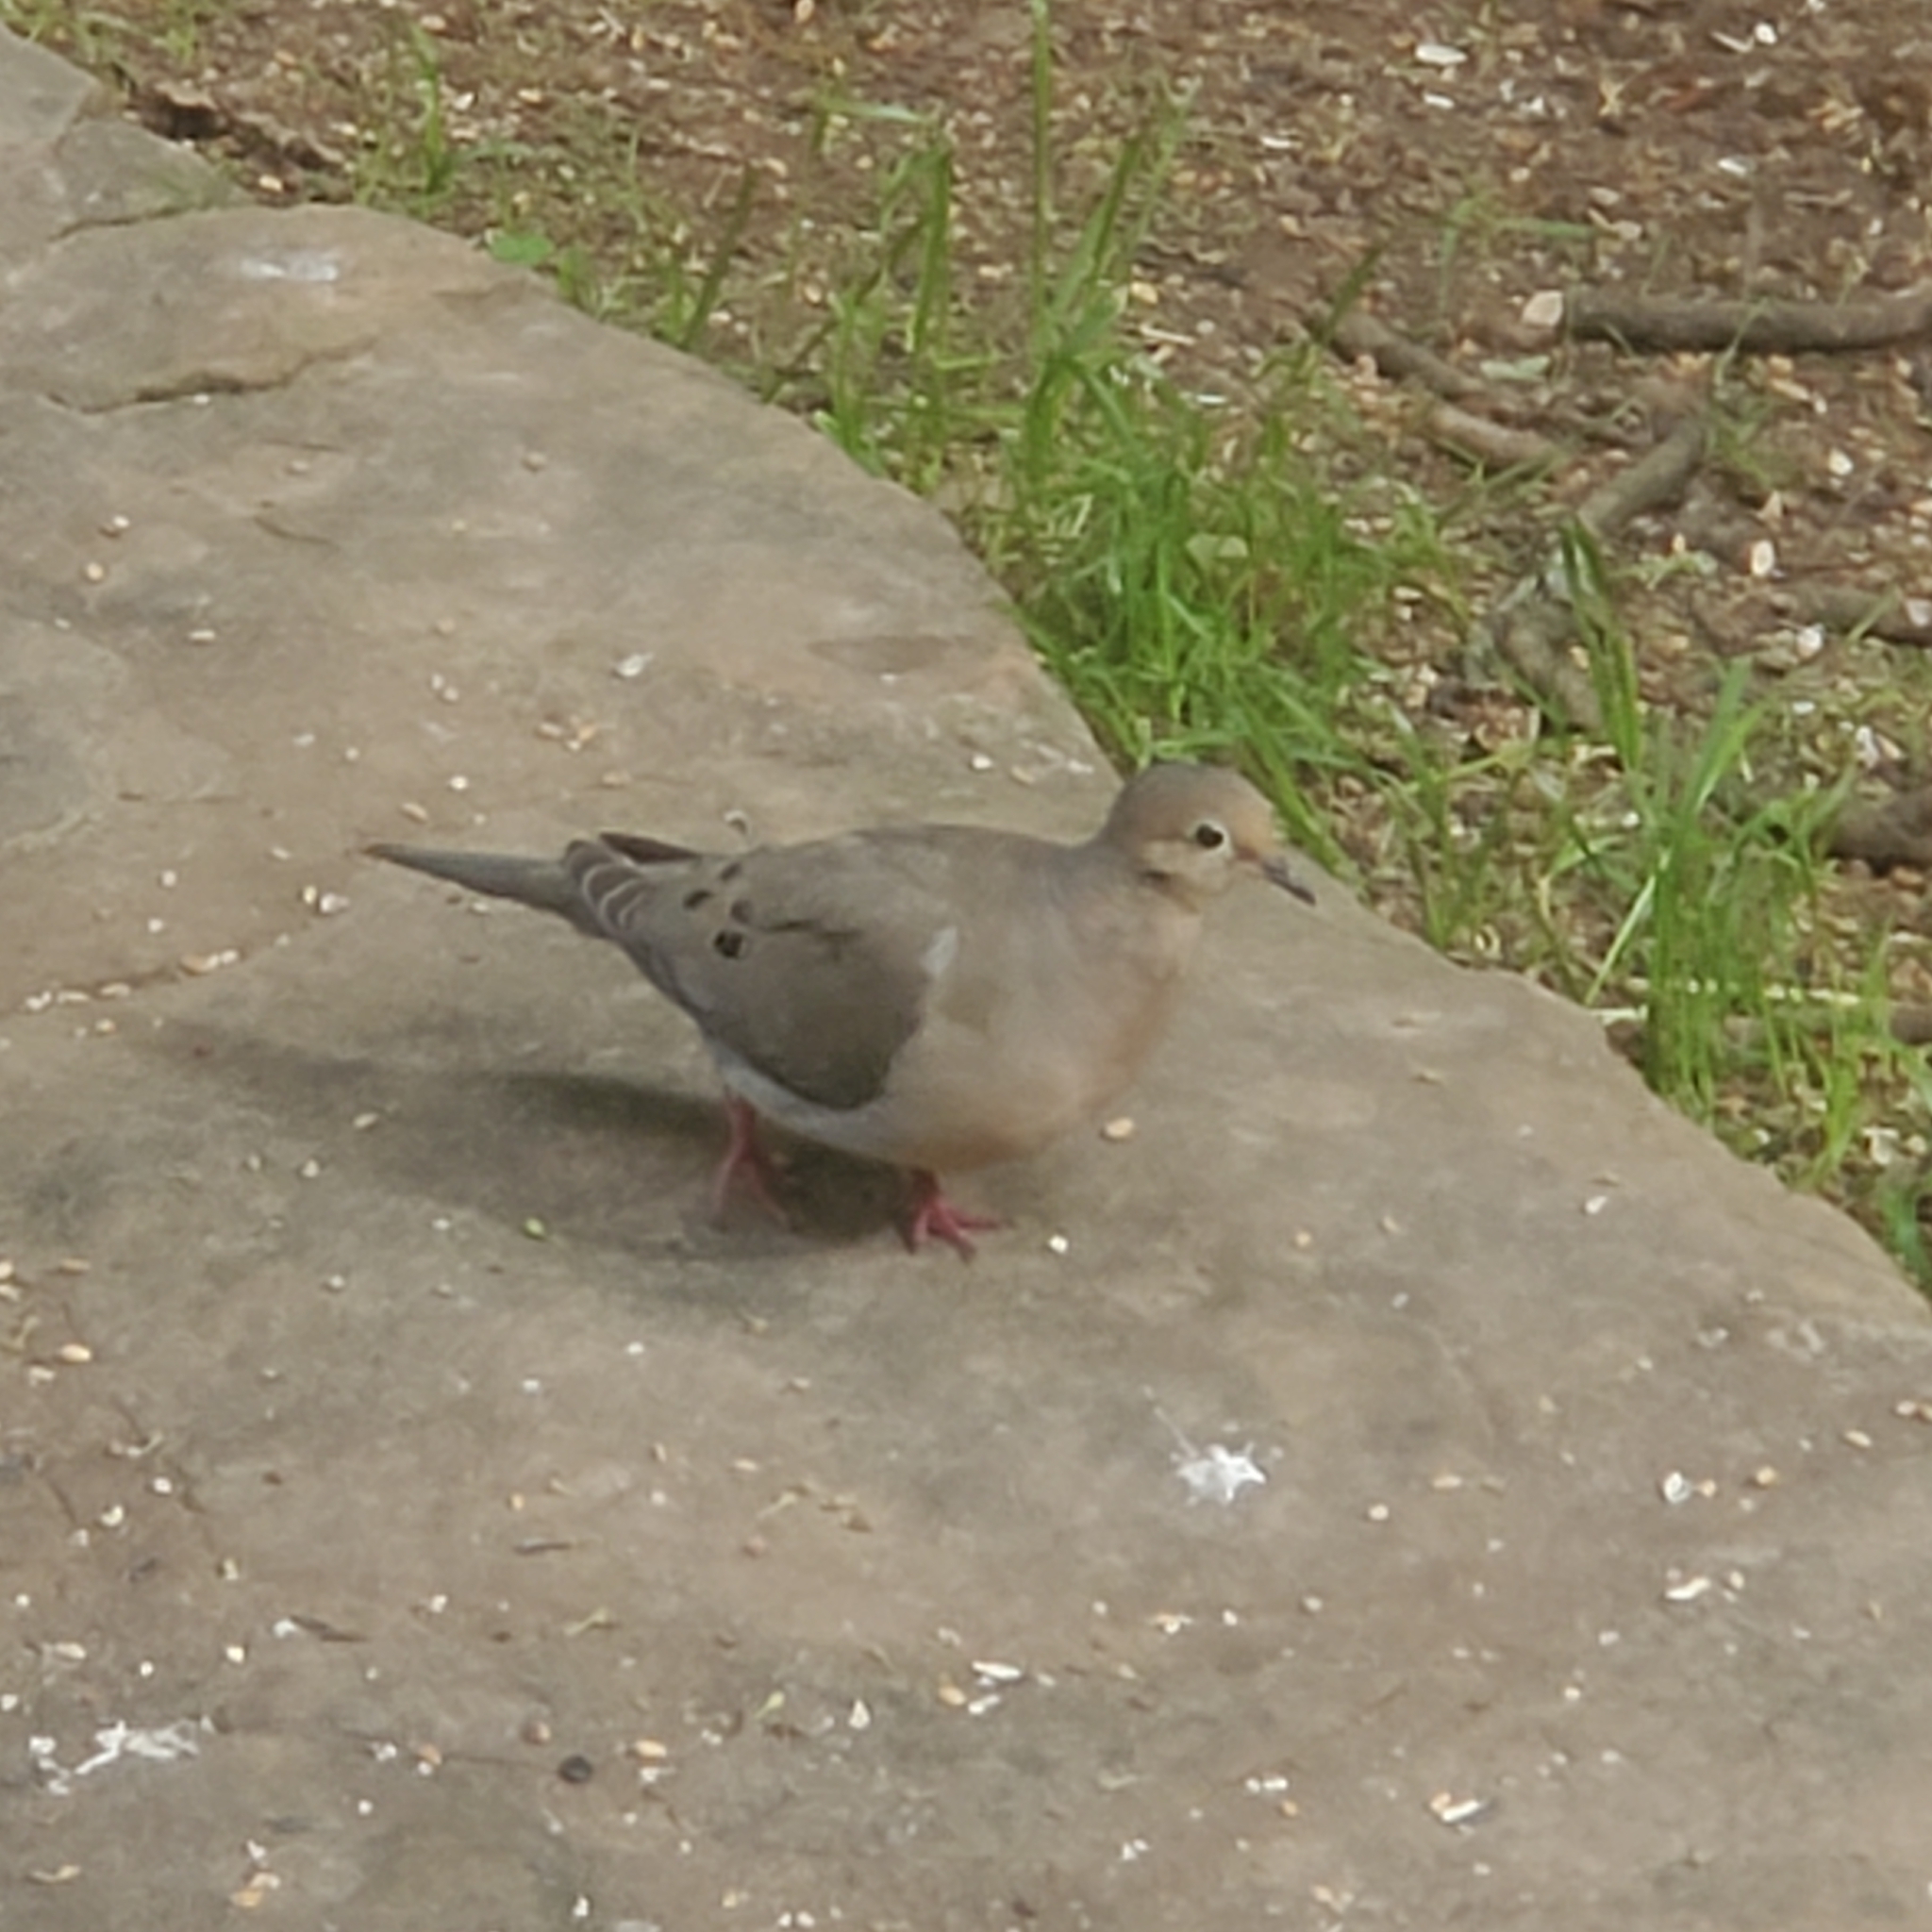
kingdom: Animalia
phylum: Chordata
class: Aves
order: Columbiformes
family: Columbidae
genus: Zenaida
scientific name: Zenaida macroura
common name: Mourning dove
